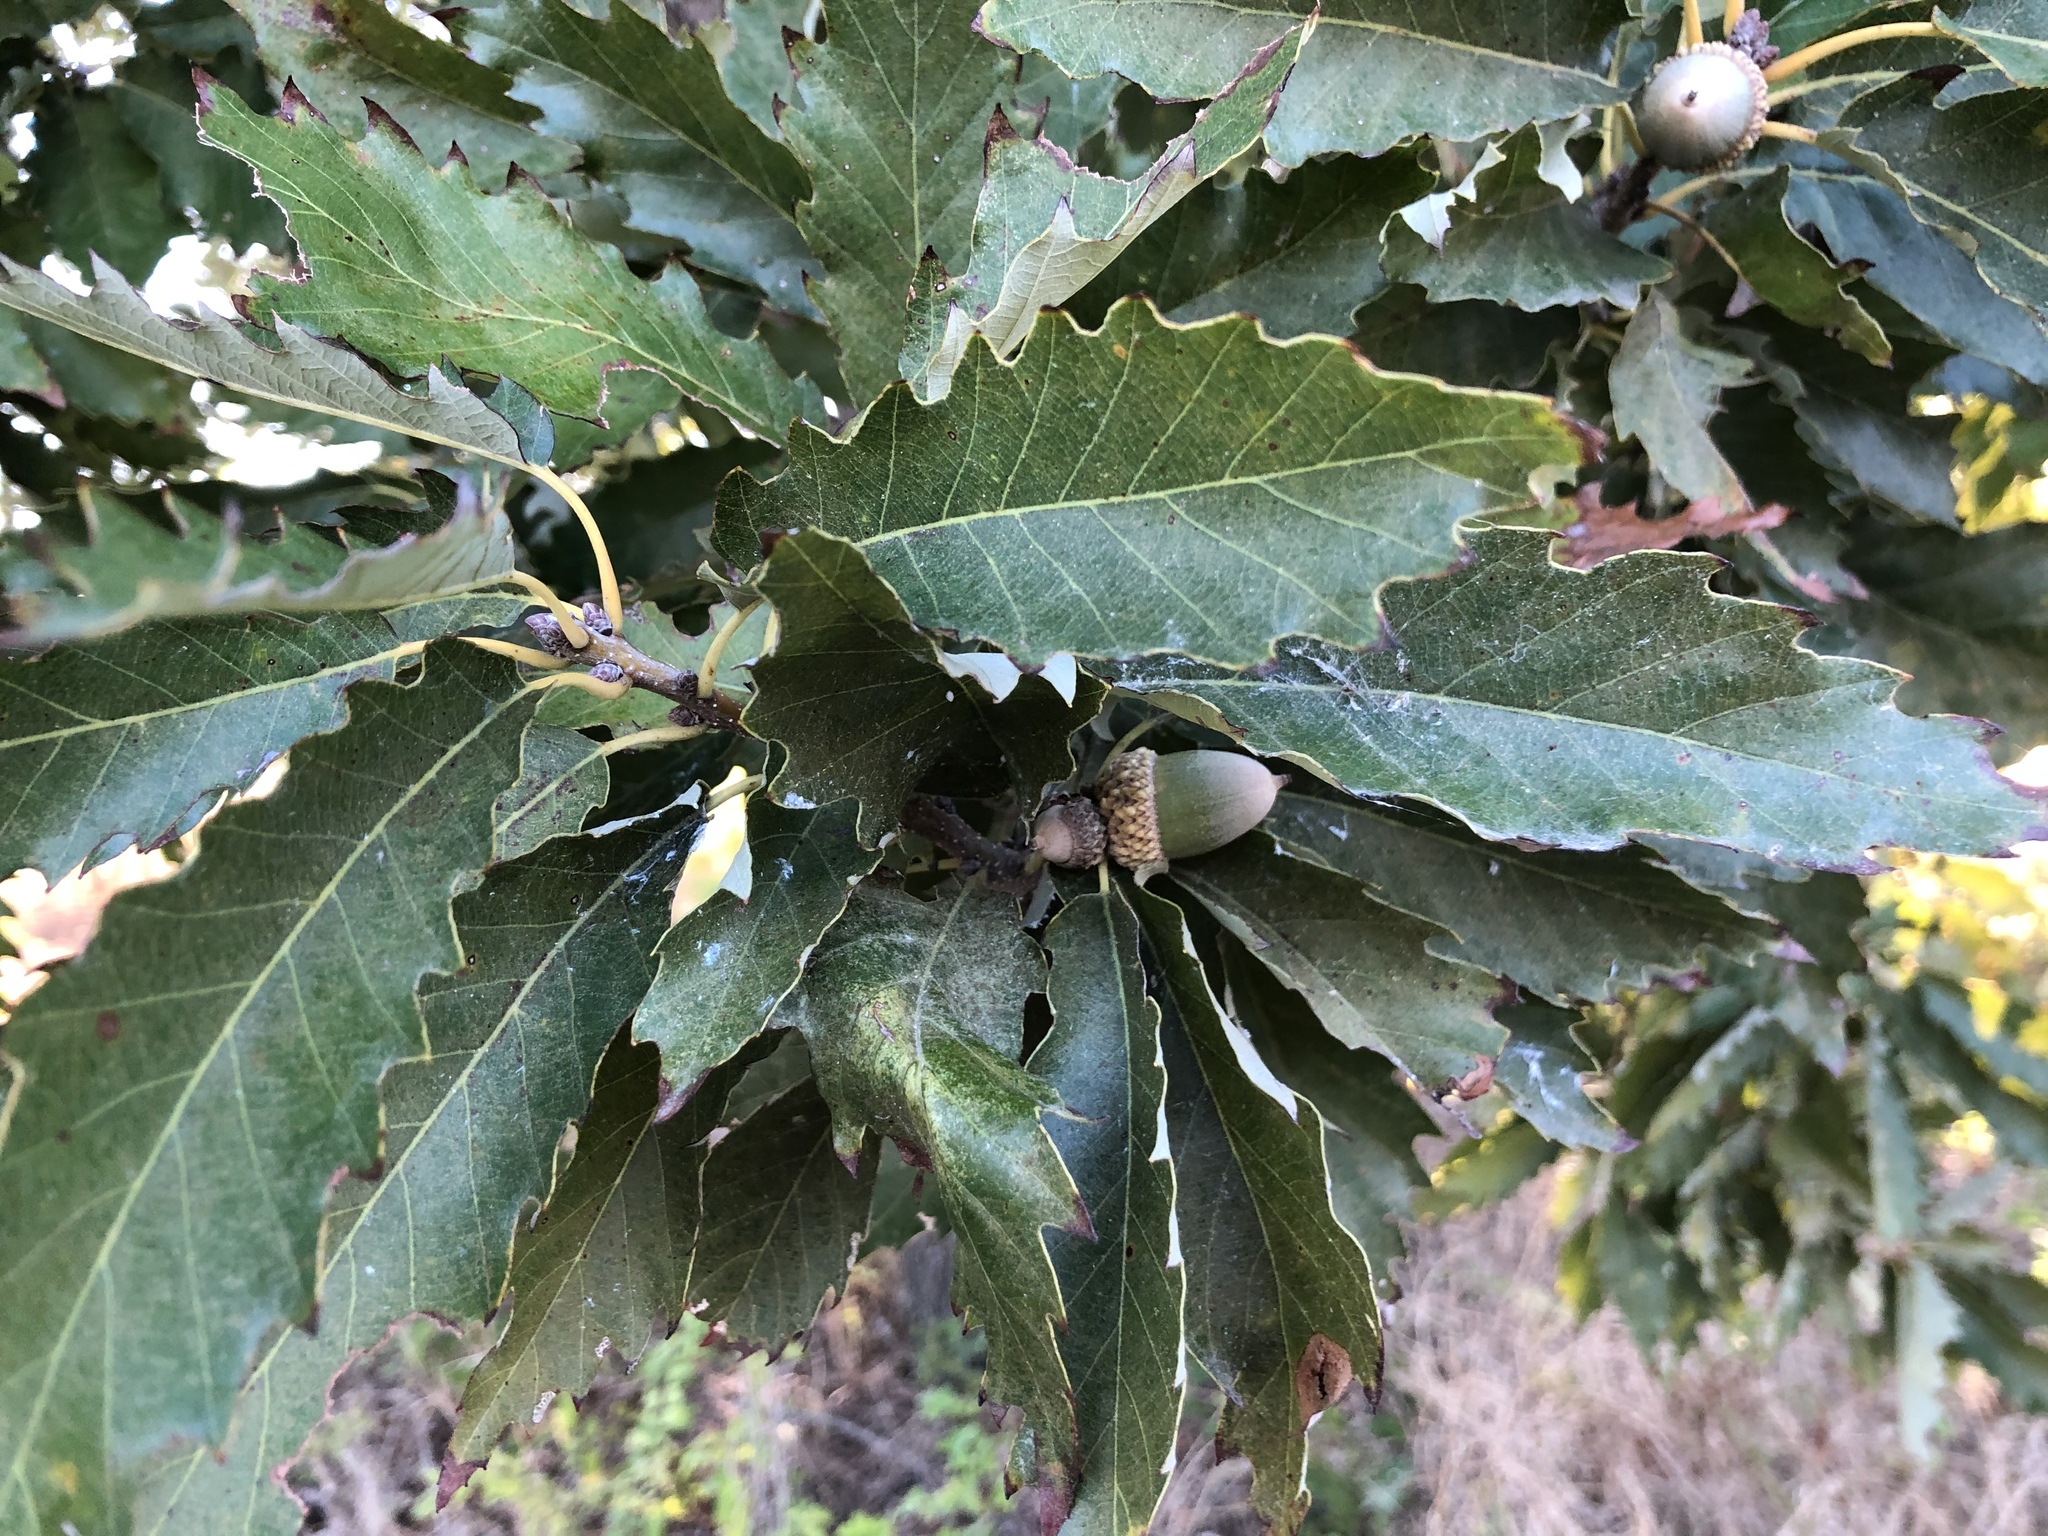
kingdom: Plantae
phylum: Tracheophyta
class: Magnoliopsida
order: Fagales
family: Fagaceae
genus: Quercus
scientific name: Quercus muehlenbergii
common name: Chinkapin oak
